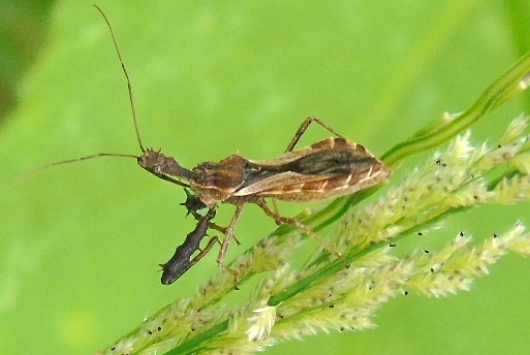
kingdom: Animalia
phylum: Arthropoda
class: Insecta
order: Hemiptera
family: Reduviidae
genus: Sinea
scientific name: Sinea
